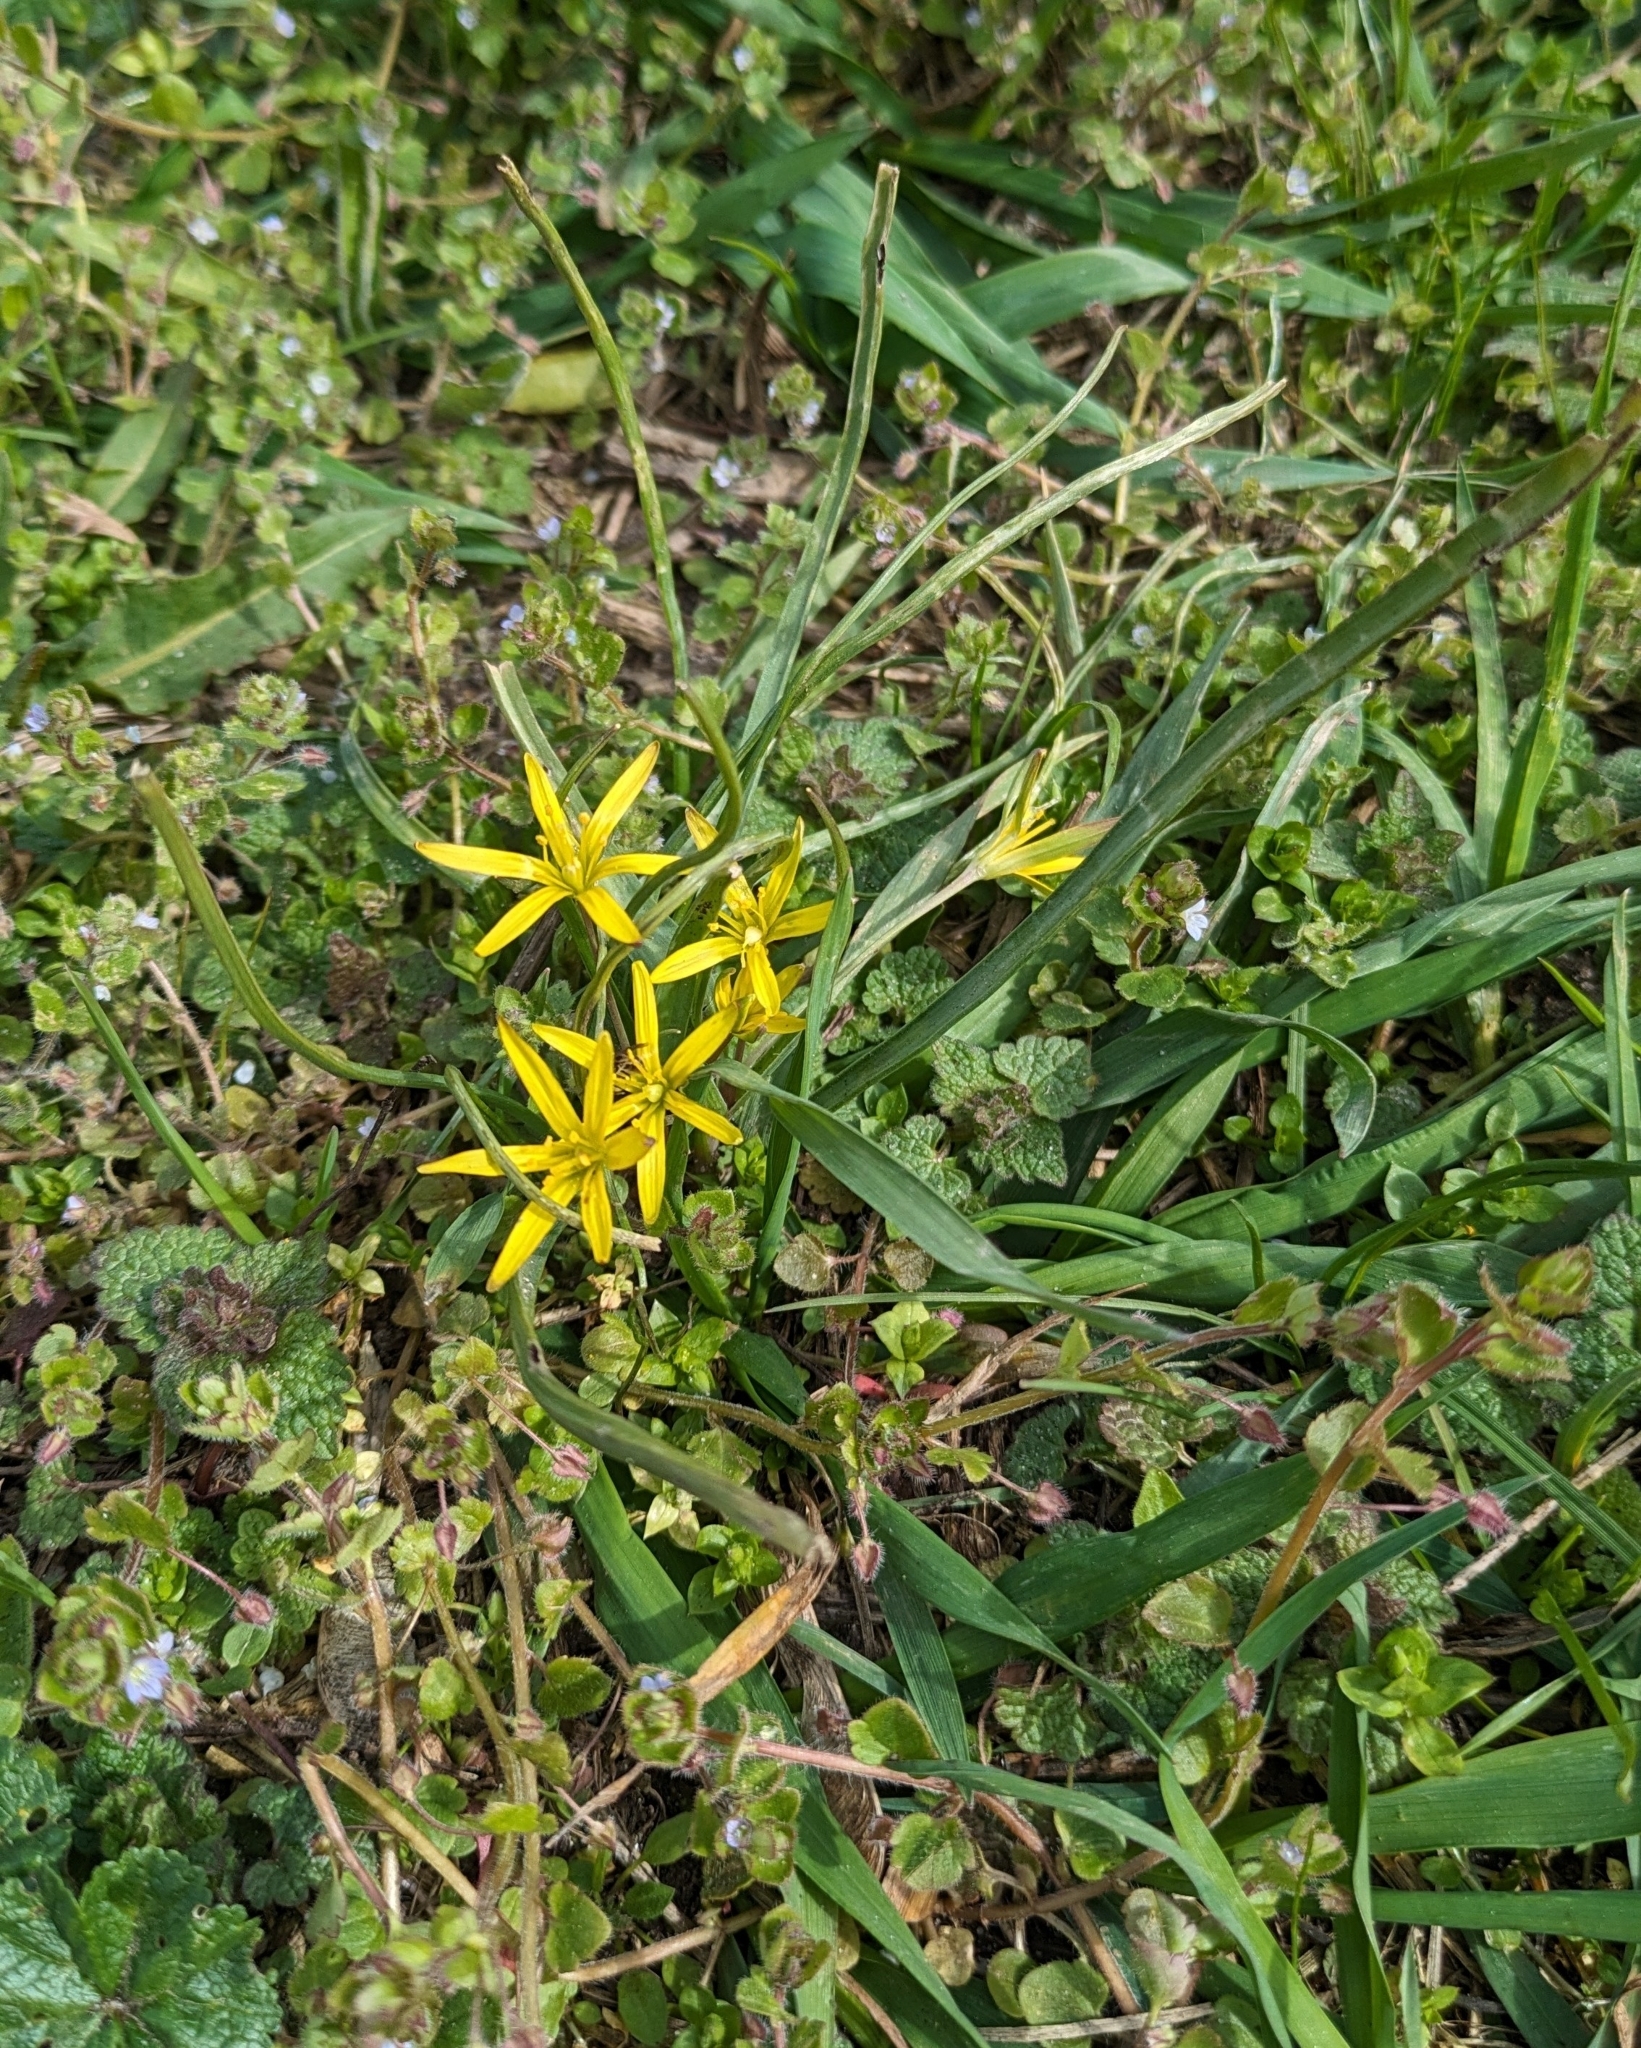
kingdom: Plantae
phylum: Tracheophyta
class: Liliopsida
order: Liliales
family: Liliaceae
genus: Gagea
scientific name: Gagea pratensis
